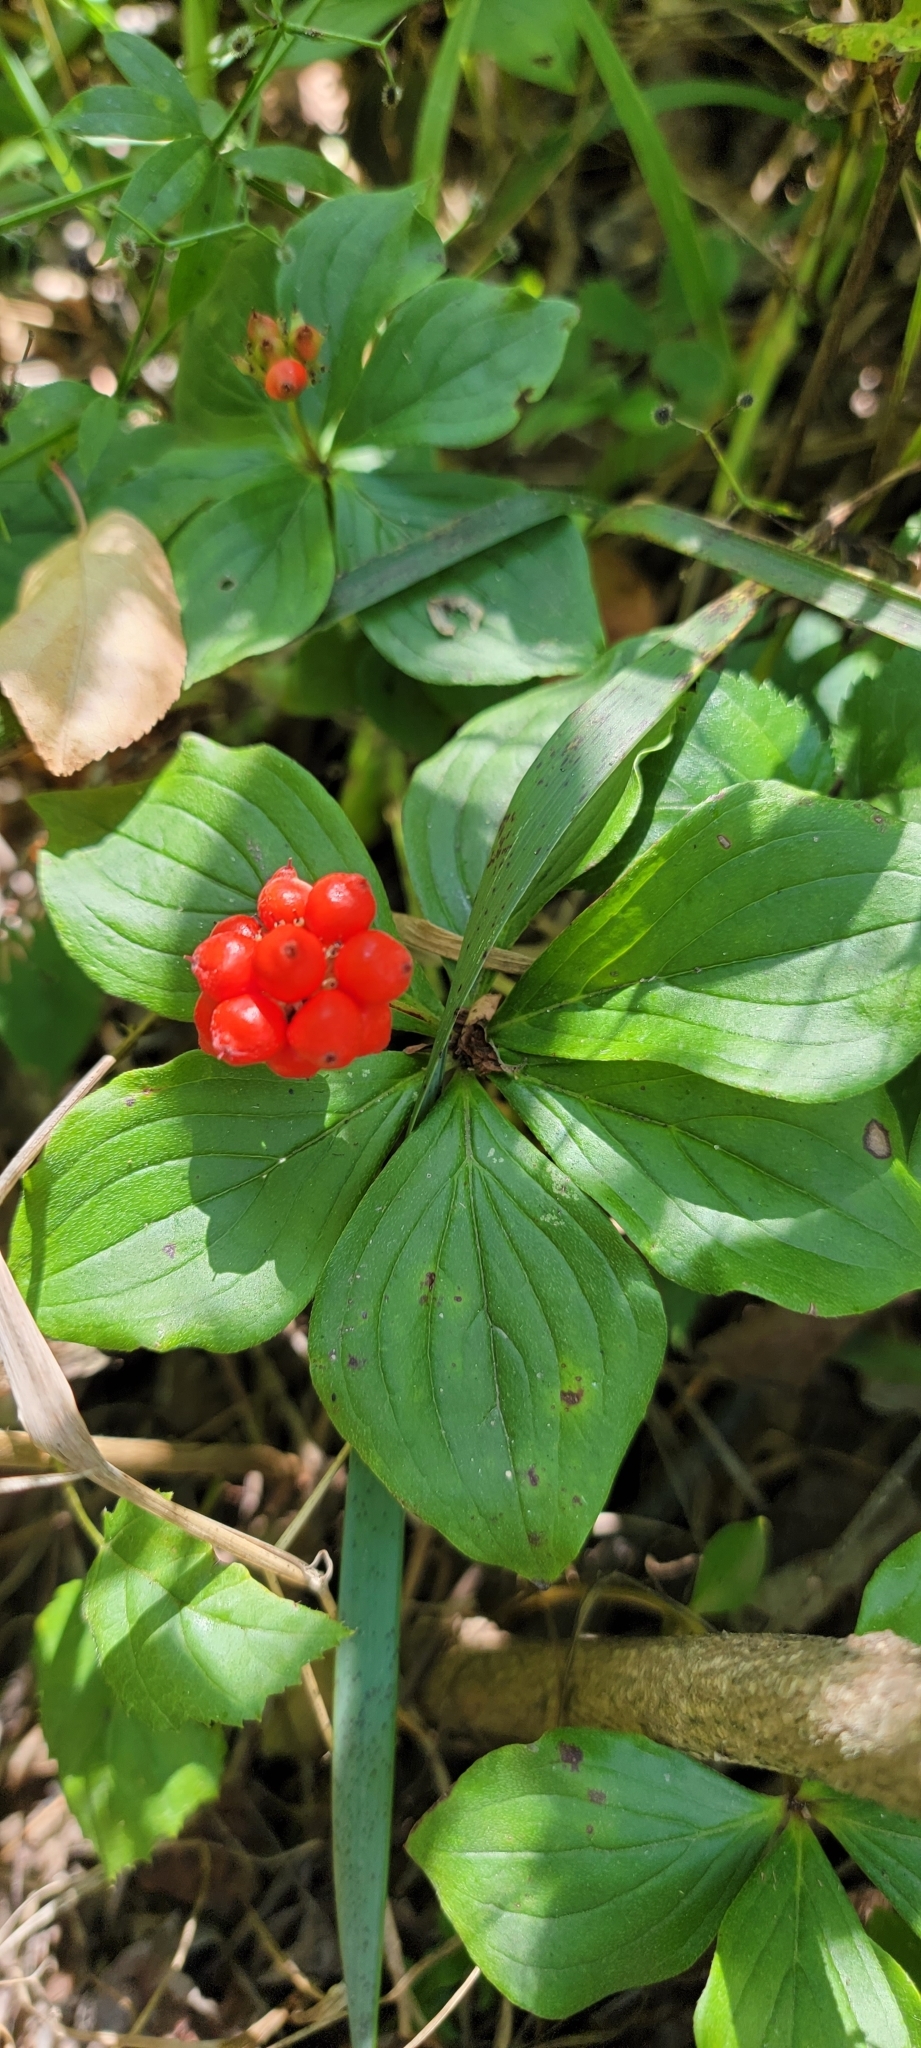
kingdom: Plantae
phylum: Tracheophyta
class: Magnoliopsida
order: Cornales
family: Cornaceae
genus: Cornus
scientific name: Cornus canadensis
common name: Creeping dogwood
